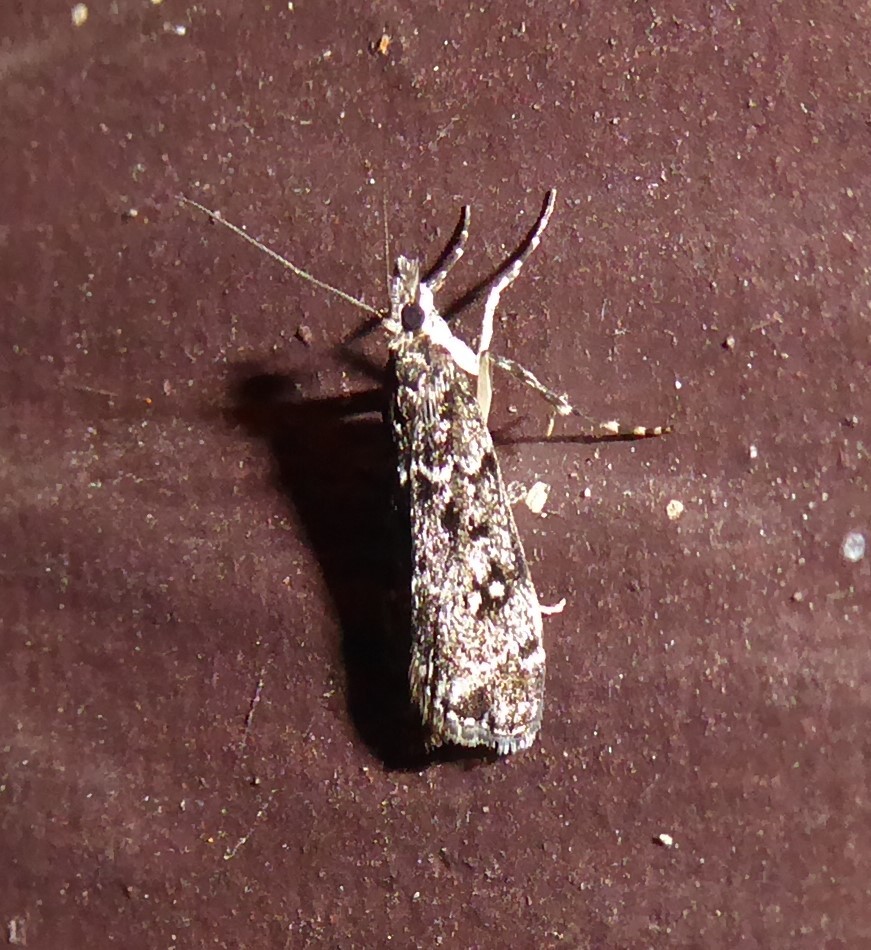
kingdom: Animalia
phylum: Arthropoda
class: Insecta
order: Lepidoptera
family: Crambidae
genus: Eudonia
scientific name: Eudonia philerga
